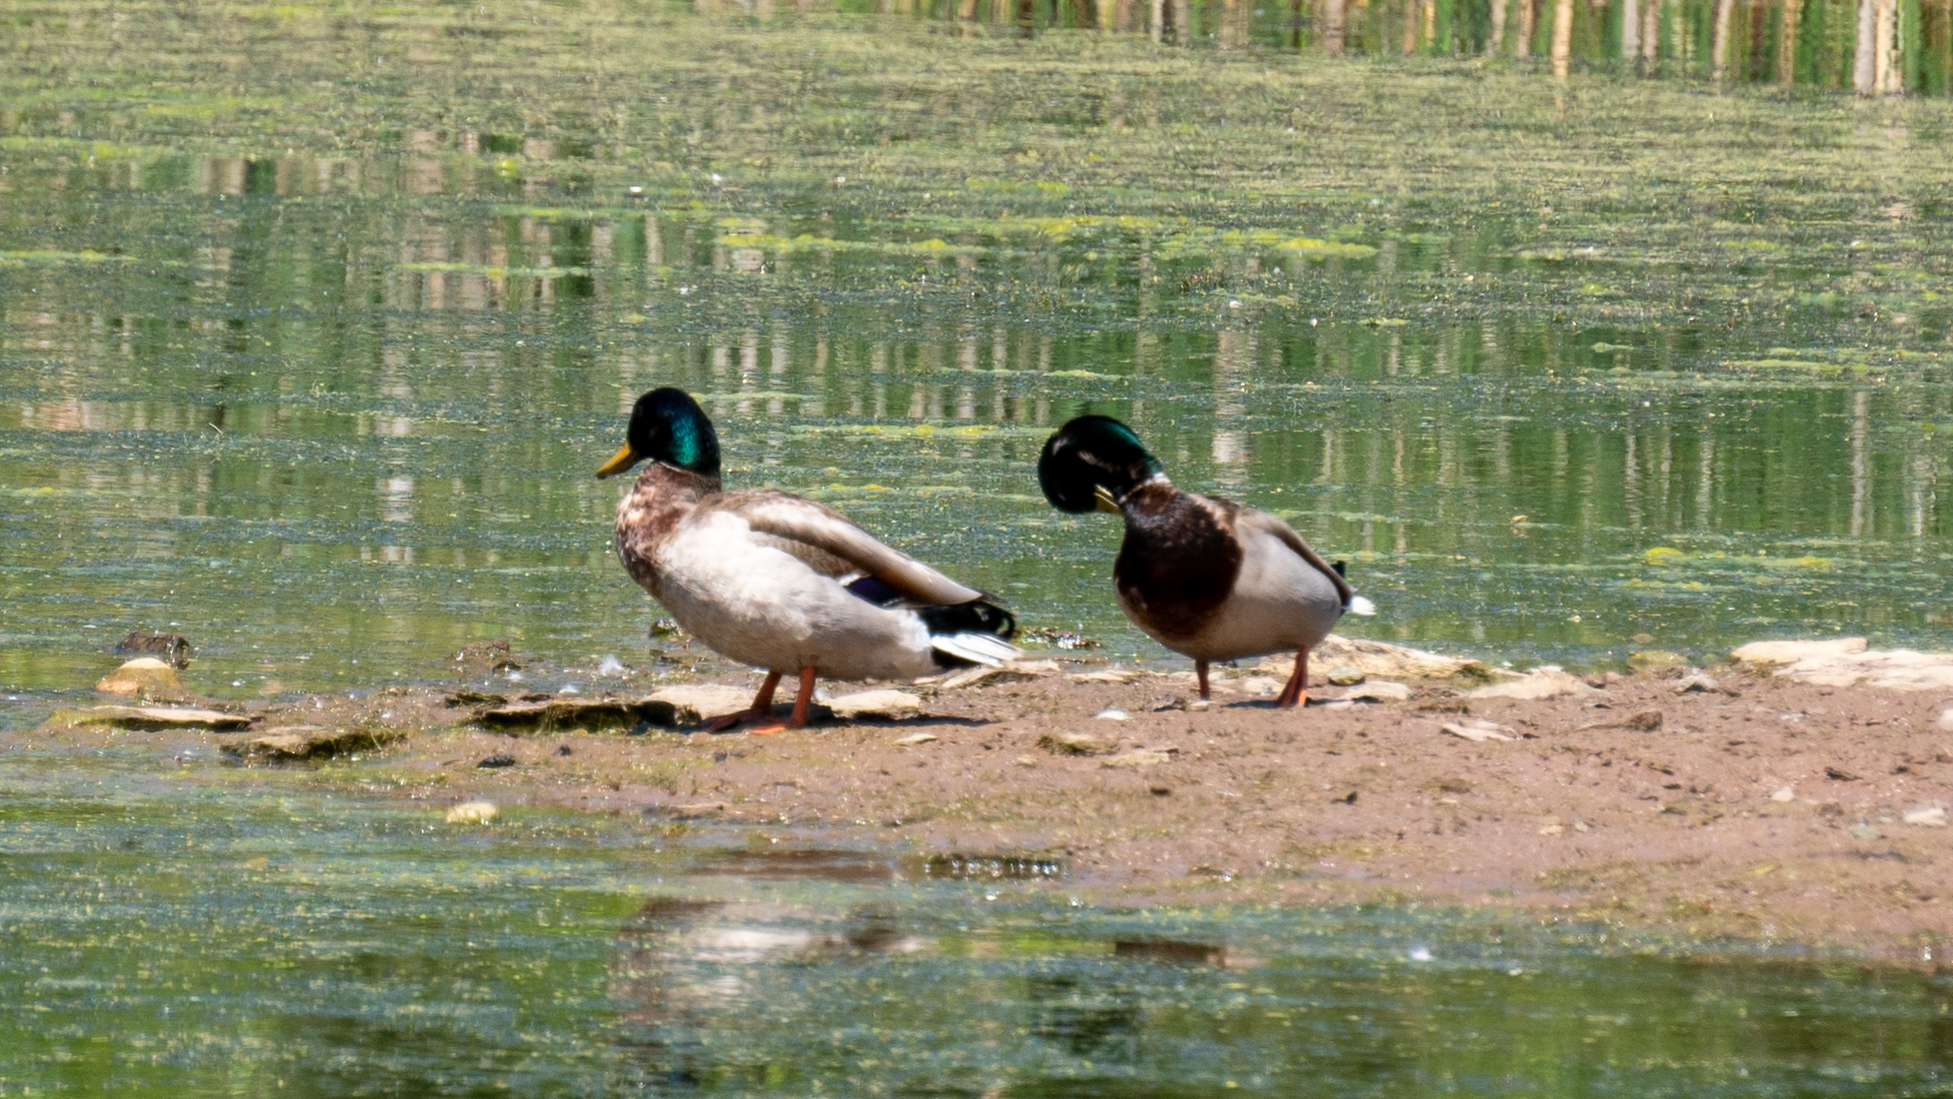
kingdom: Animalia
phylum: Chordata
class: Aves
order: Anseriformes
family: Anatidae
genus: Anas
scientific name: Anas platyrhynchos
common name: Mallard
